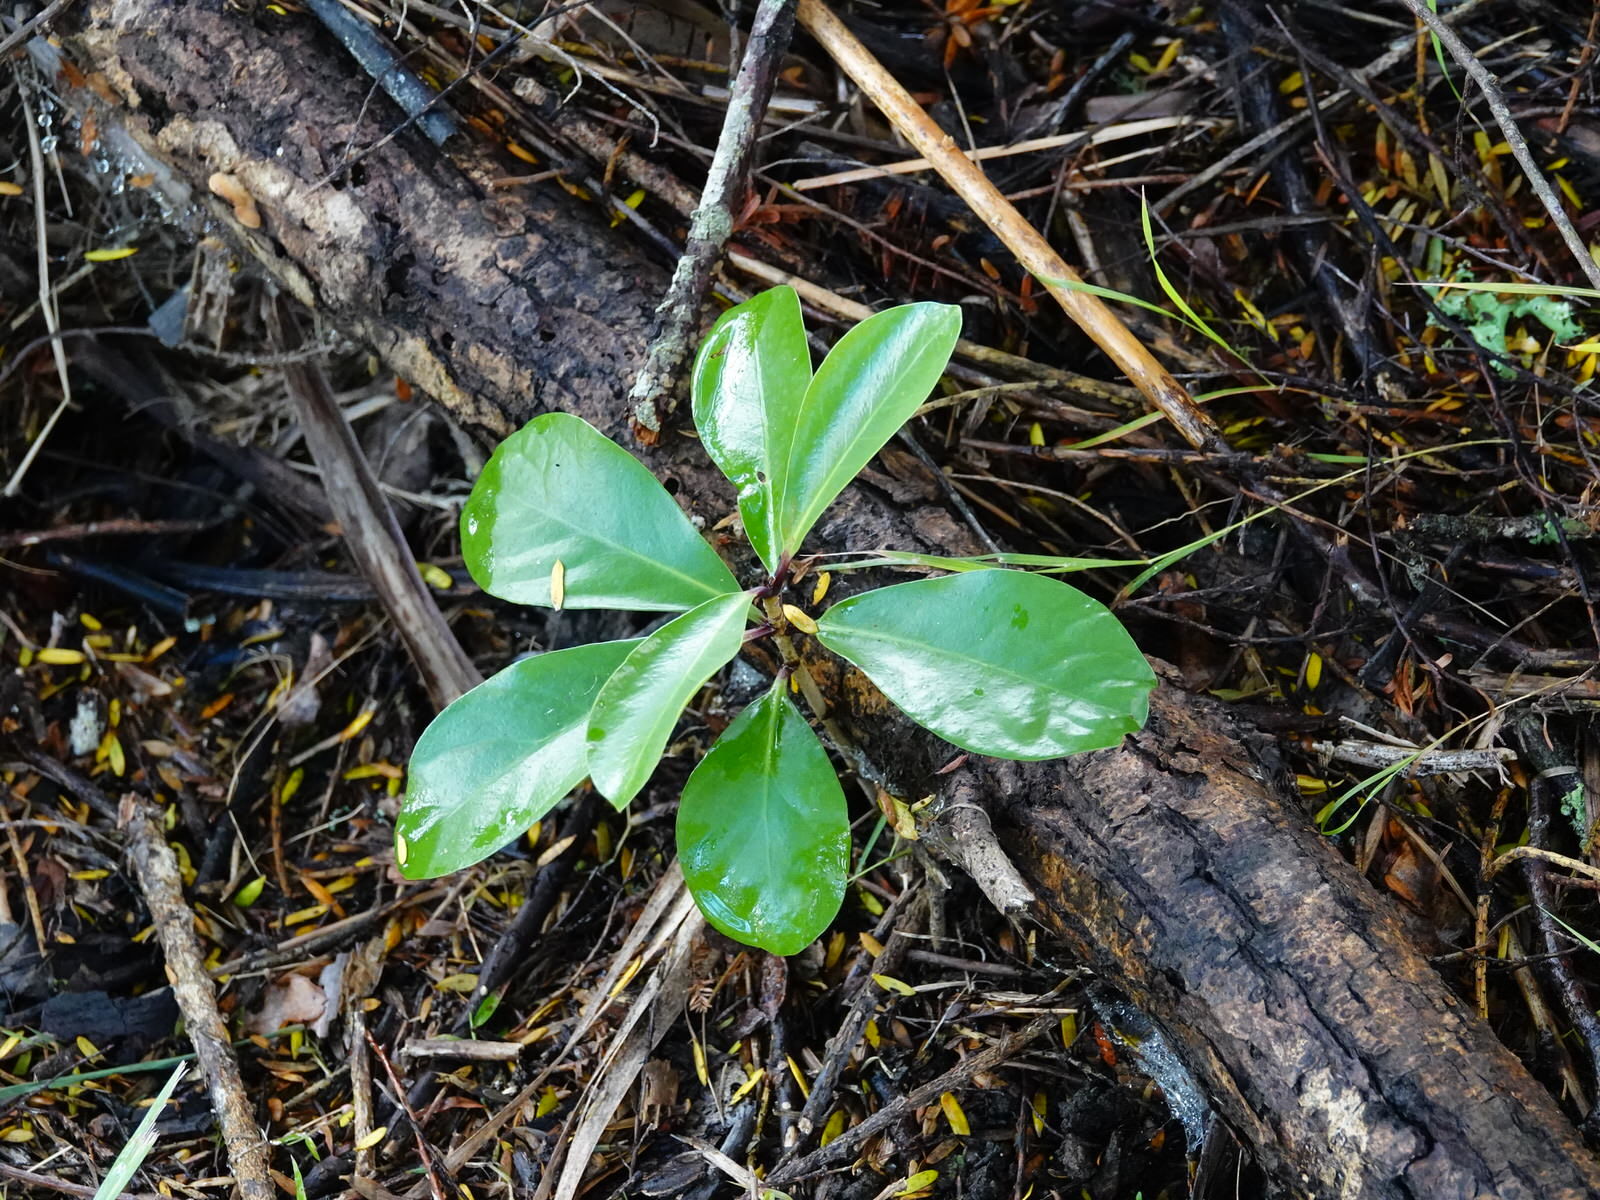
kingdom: Plantae
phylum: Tracheophyta
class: Magnoliopsida
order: Cucurbitales
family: Corynocarpaceae
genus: Corynocarpus
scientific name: Corynocarpus laevigatus
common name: New zealand laurel
